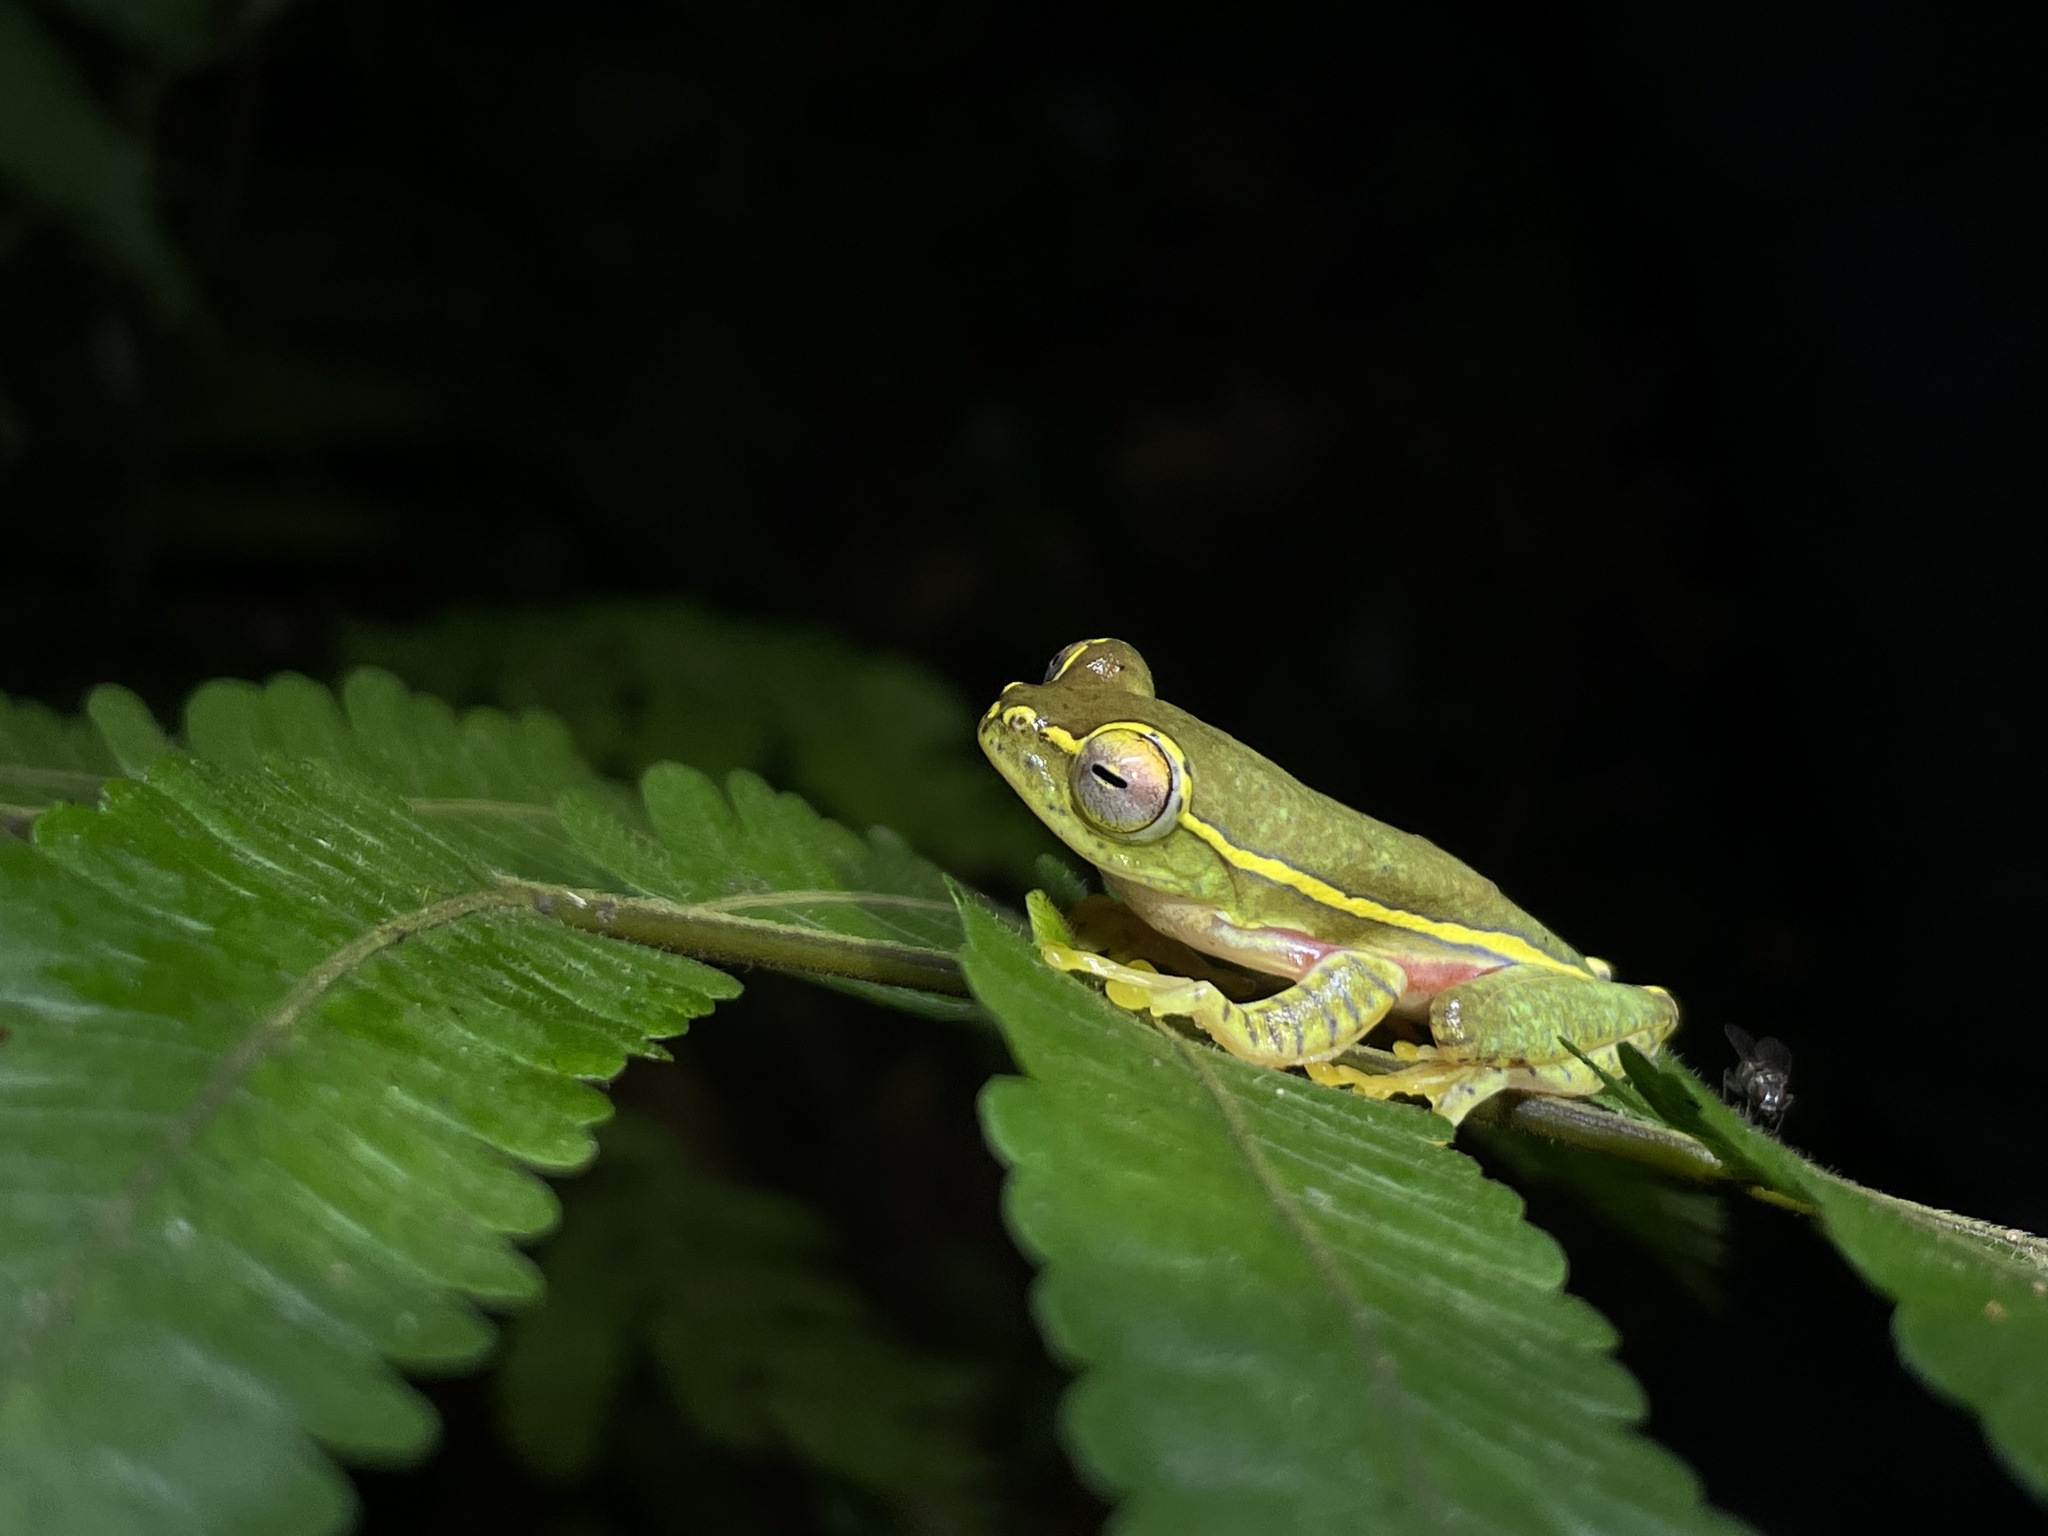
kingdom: Animalia
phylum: Chordata
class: Amphibia
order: Anura
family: Rhacophoridae
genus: Rhacophorus
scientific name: Rhacophorus lateralis
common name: Boulenger's tree frog
